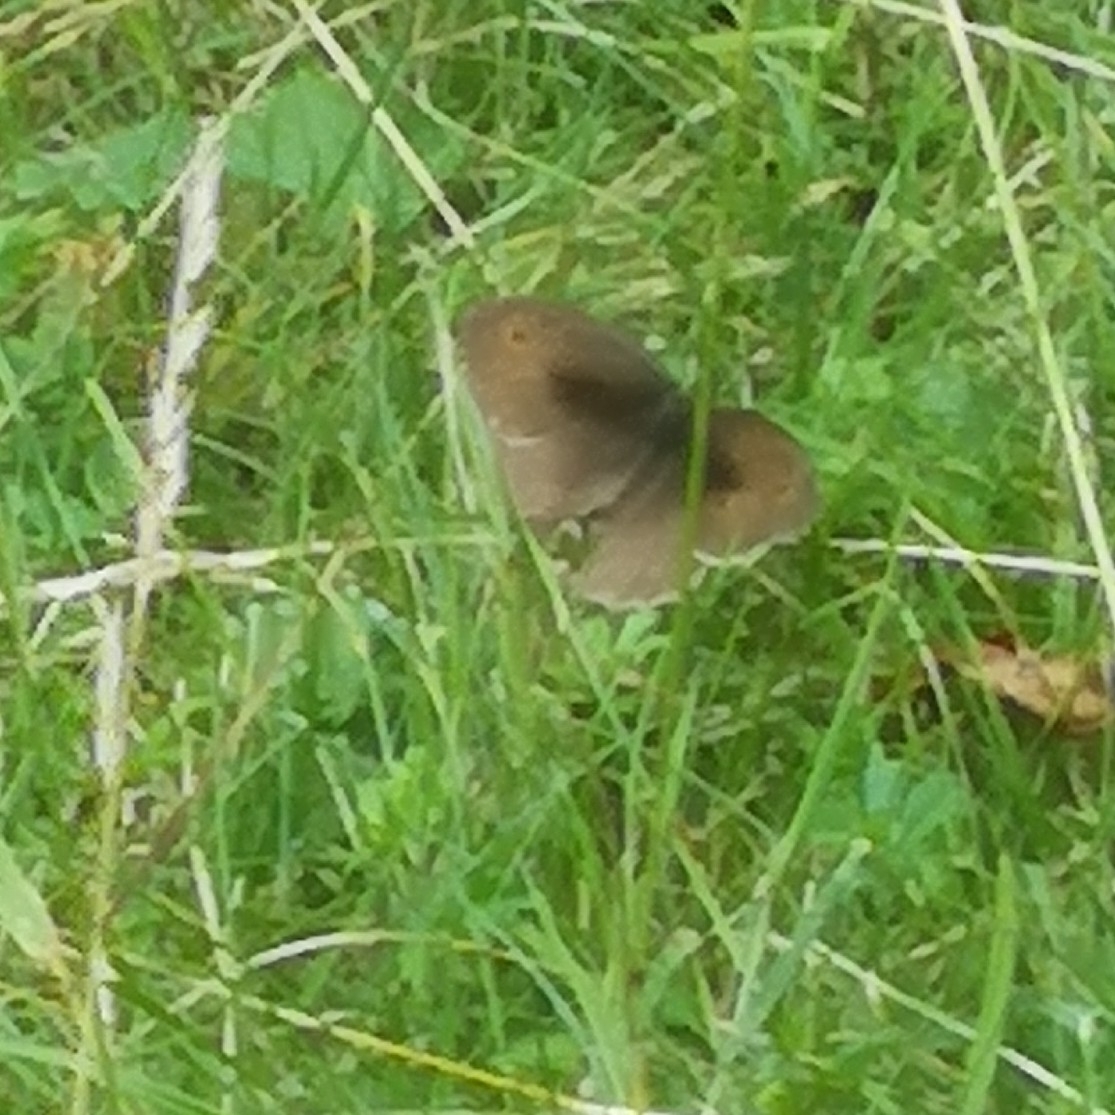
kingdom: Animalia
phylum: Arthropoda
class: Insecta
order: Lepidoptera
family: Nymphalidae
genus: Maniola
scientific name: Maniola jurtina
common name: Meadow brown
